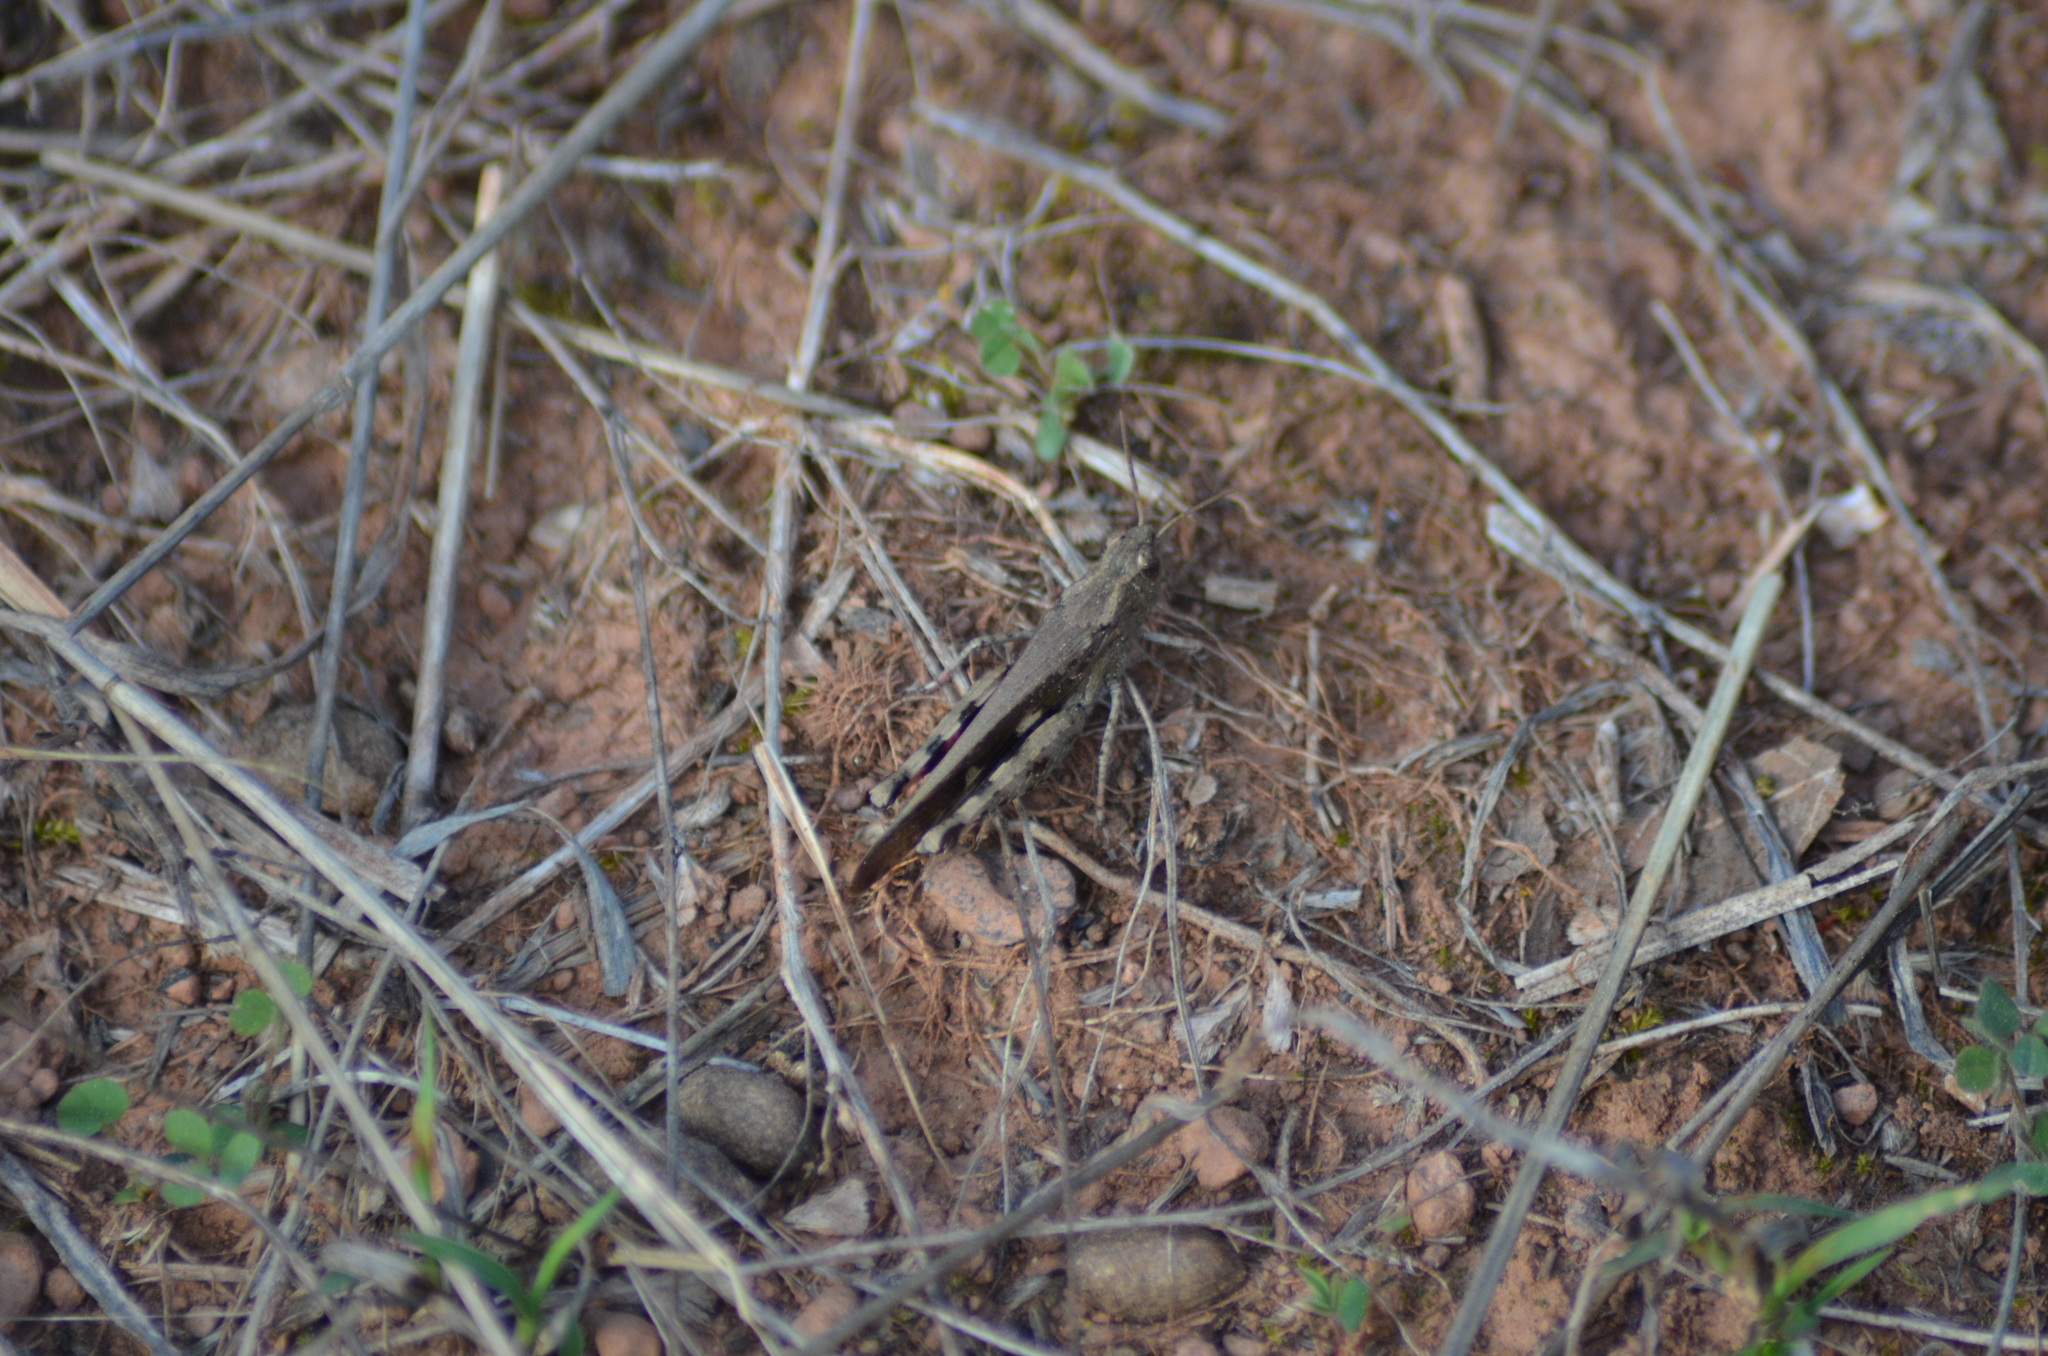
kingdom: Animalia
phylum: Arthropoda
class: Insecta
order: Orthoptera
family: Acrididae
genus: Aiolopus
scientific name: Aiolopus strepens
